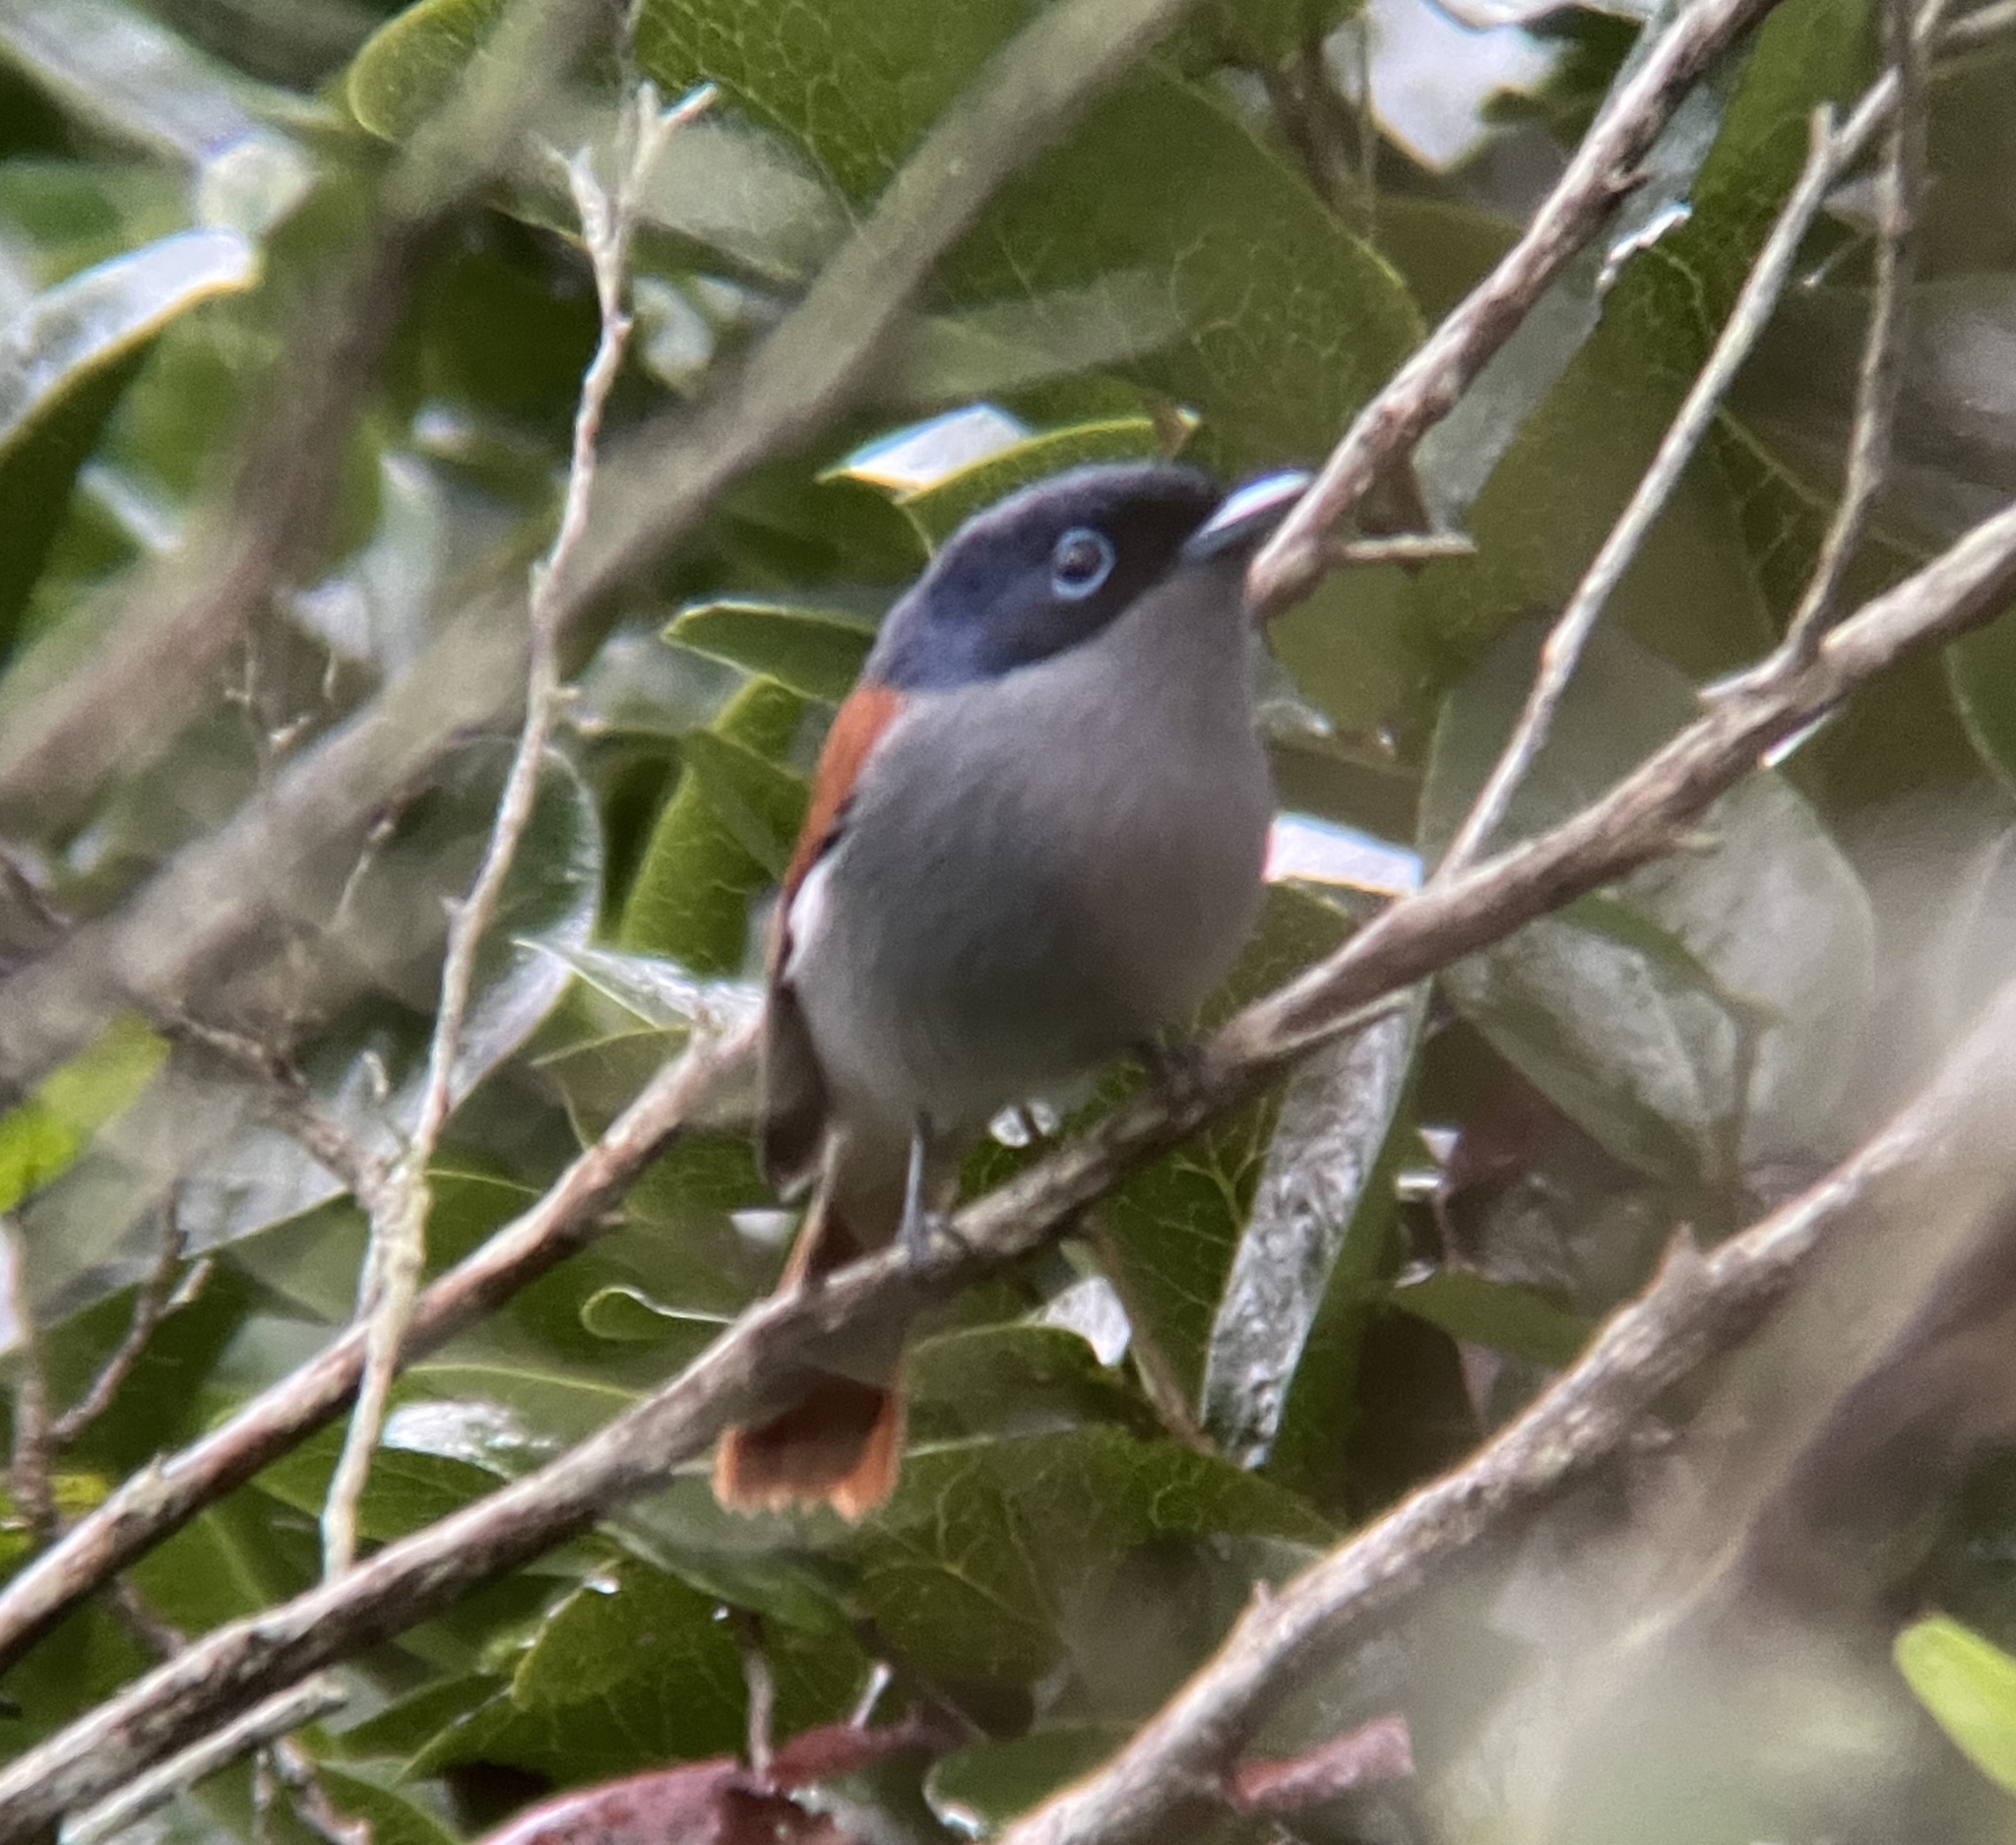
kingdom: Animalia
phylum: Chordata
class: Aves
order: Passeriformes
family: Monarchidae
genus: Terpsiphone
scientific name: Terpsiphone bourbonnensis
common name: Mascarene paradise flycatcher
